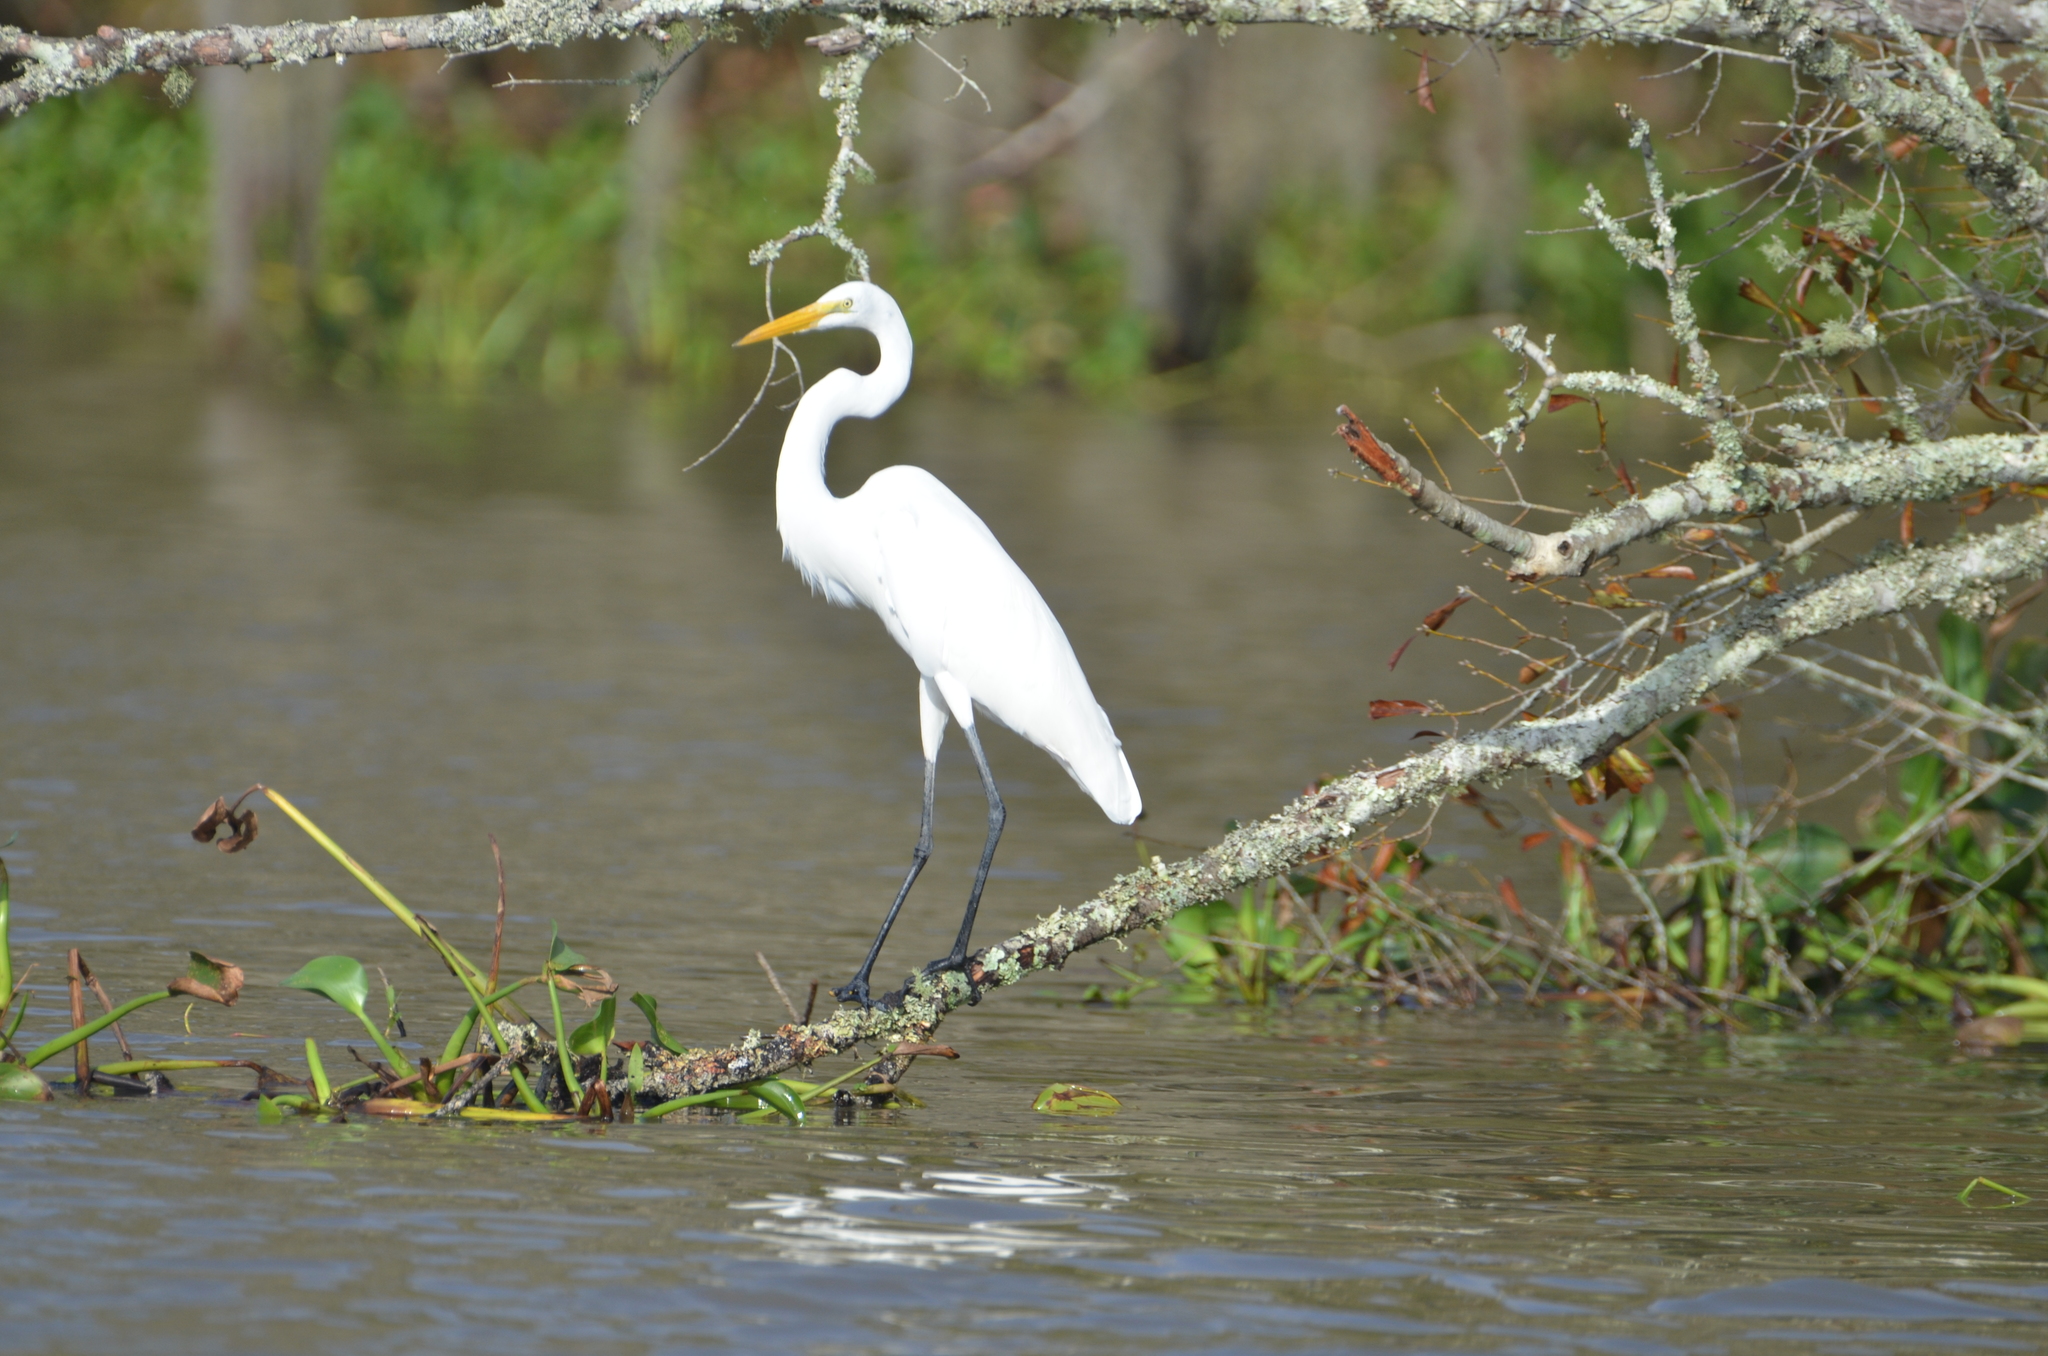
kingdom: Animalia
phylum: Chordata
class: Aves
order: Pelecaniformes
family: Ardeidae
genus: Ardea
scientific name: Ardea alba
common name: Great egret
